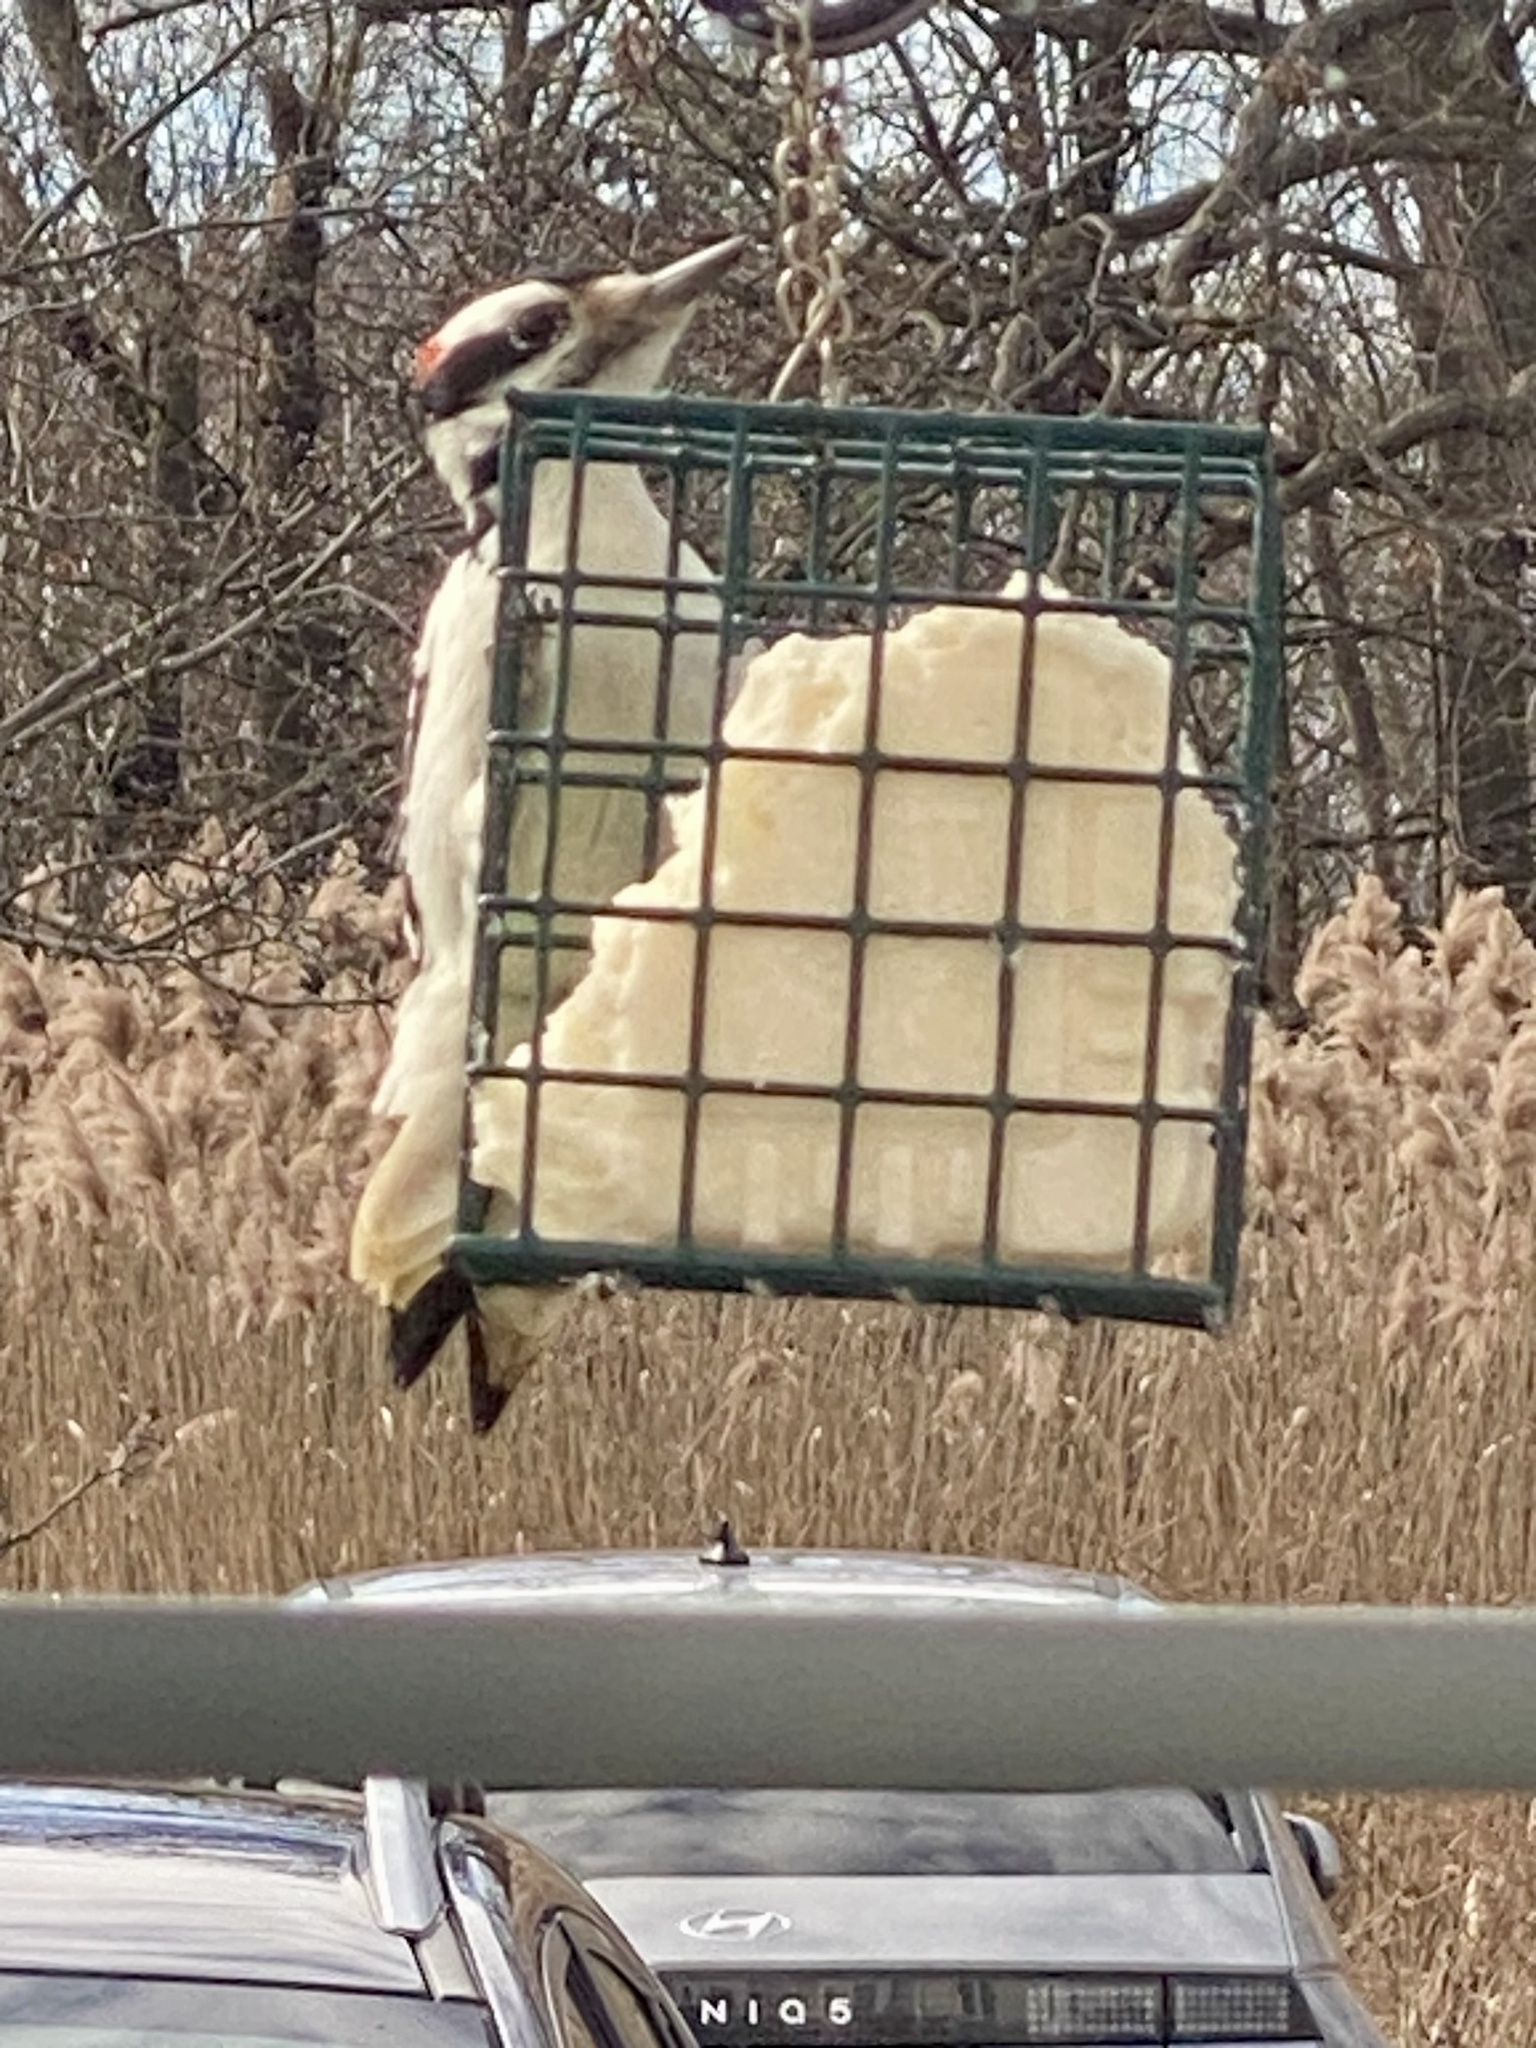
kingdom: Animalia
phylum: Chordata
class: Aves
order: Piciformes
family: Picidae
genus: Leuconotopicus
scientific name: Leuconotopicus villosus
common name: Hairy woodpecker
